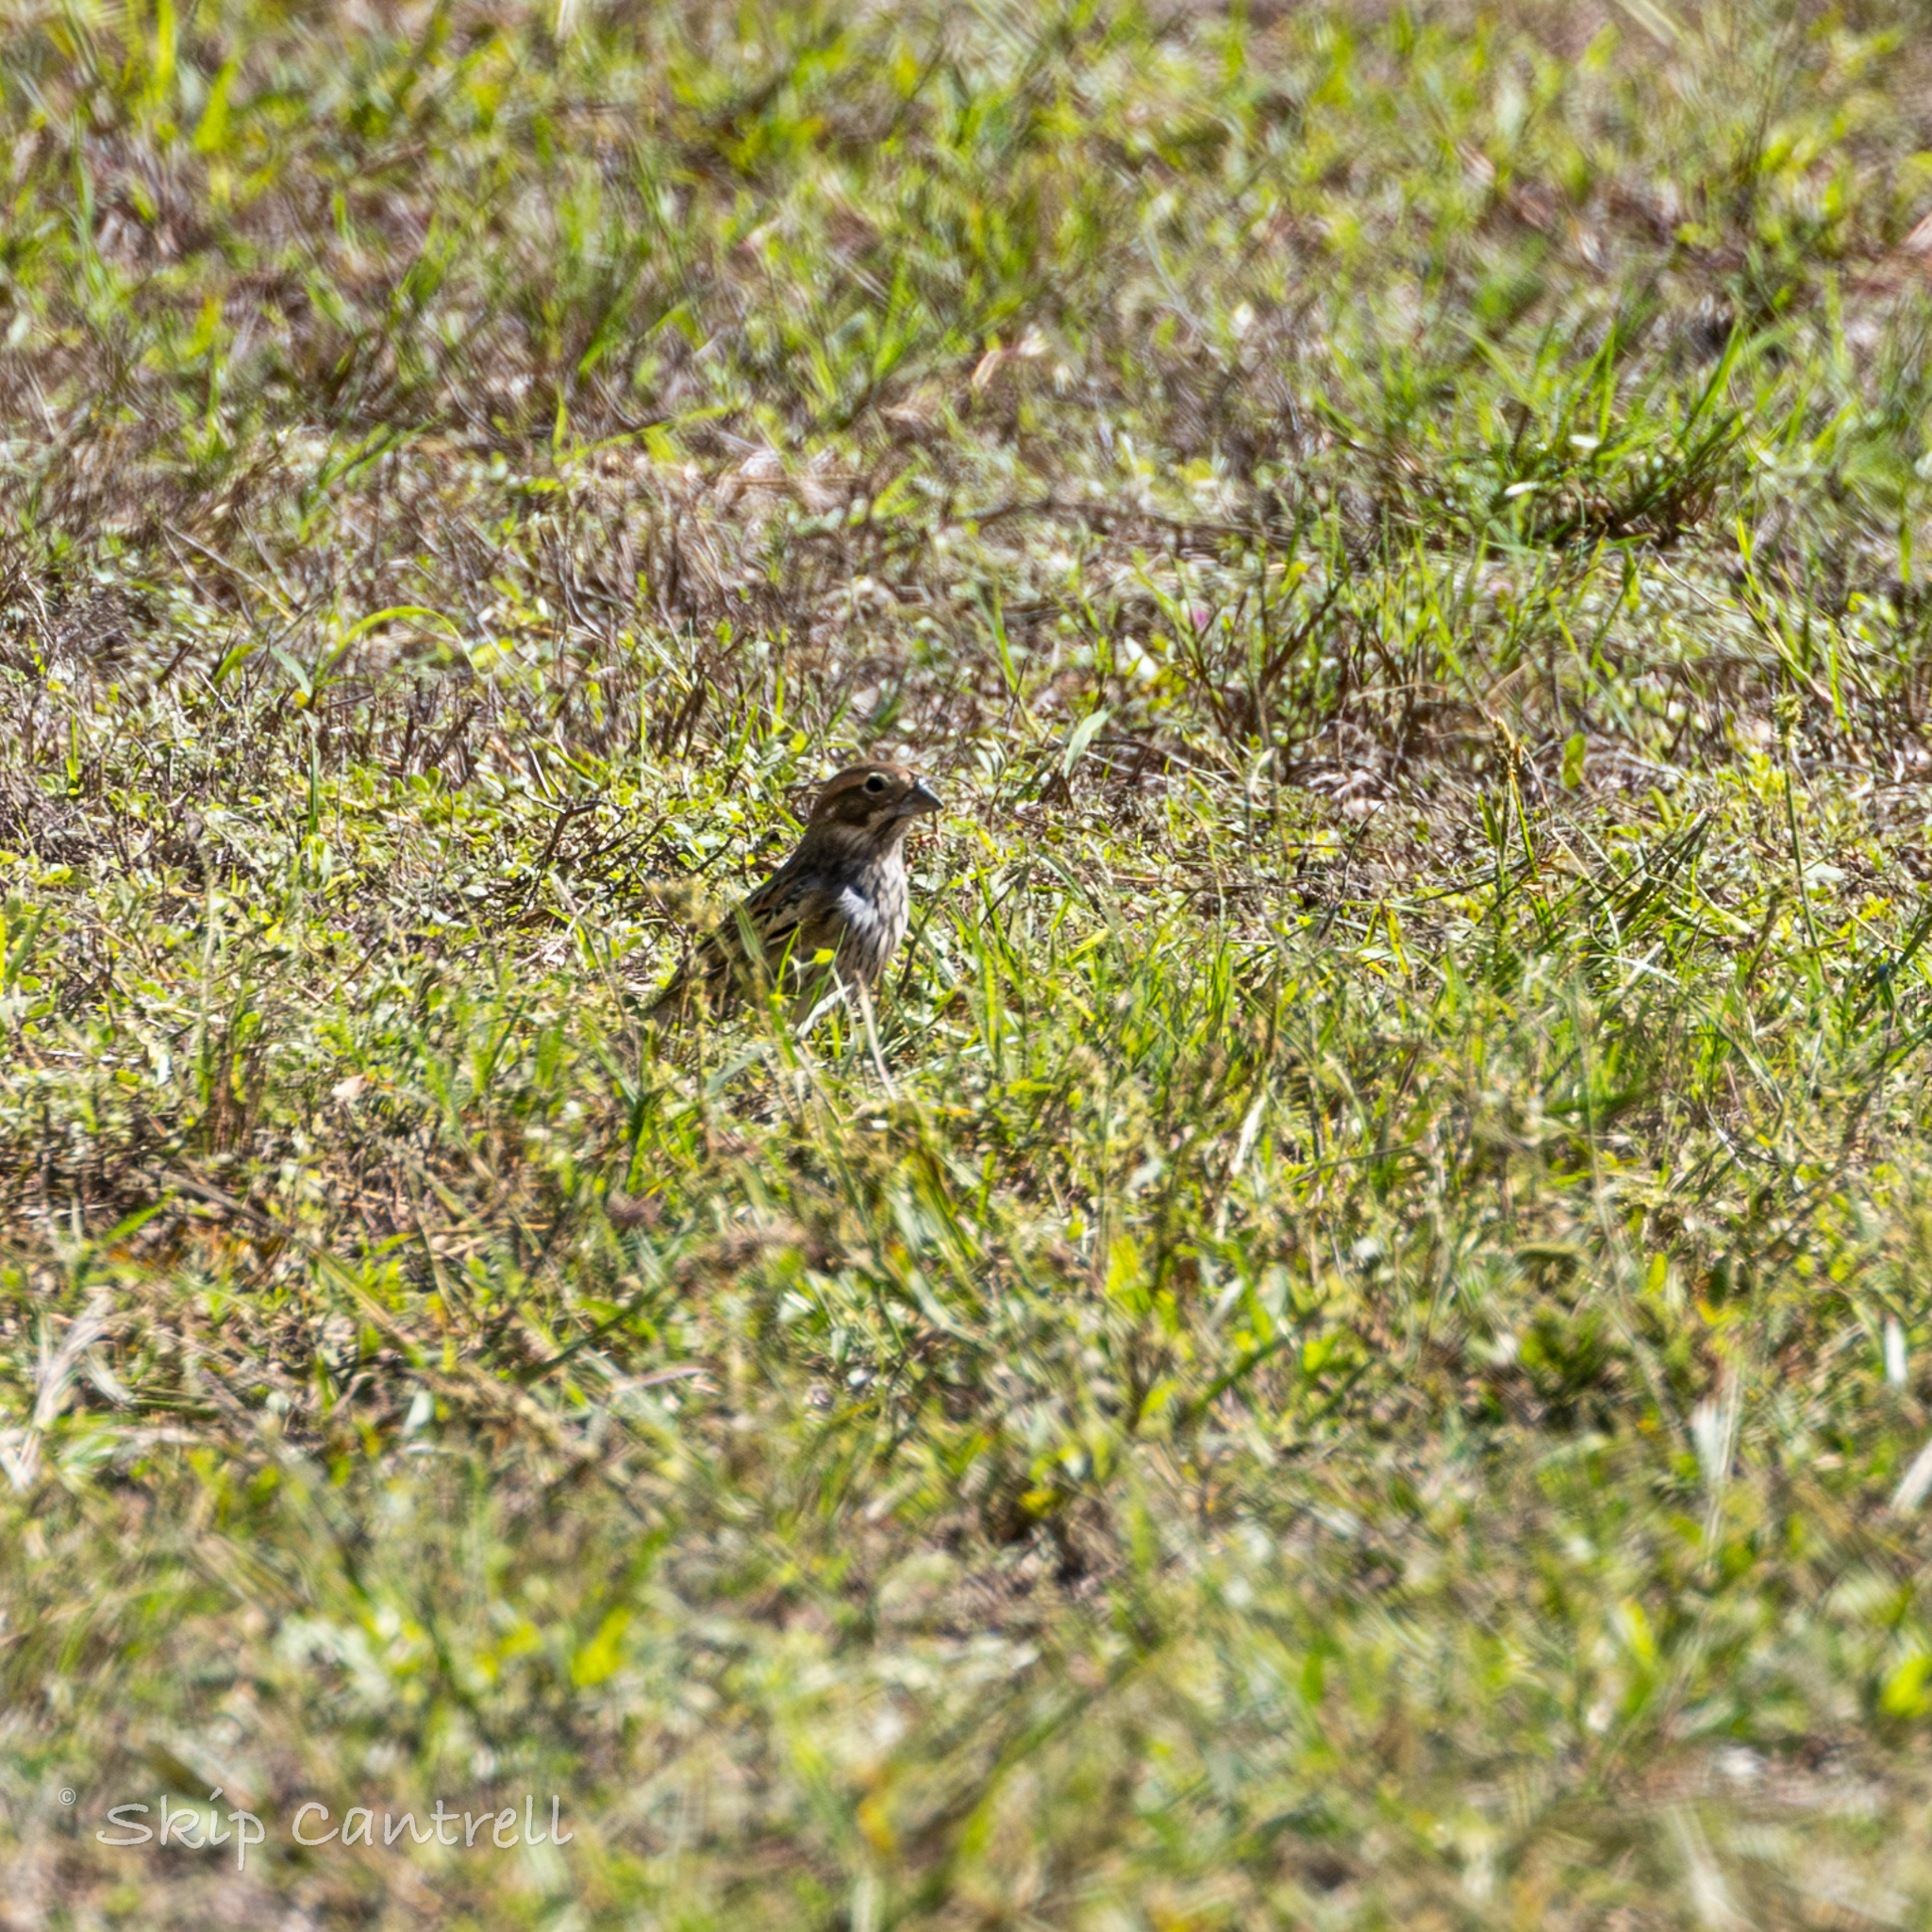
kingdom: Animalia
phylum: Chordata
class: Aves
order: Passeriformes
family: Passerellidae
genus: Calamospiza
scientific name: Calamospiza melanocorys
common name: Lark bunting
